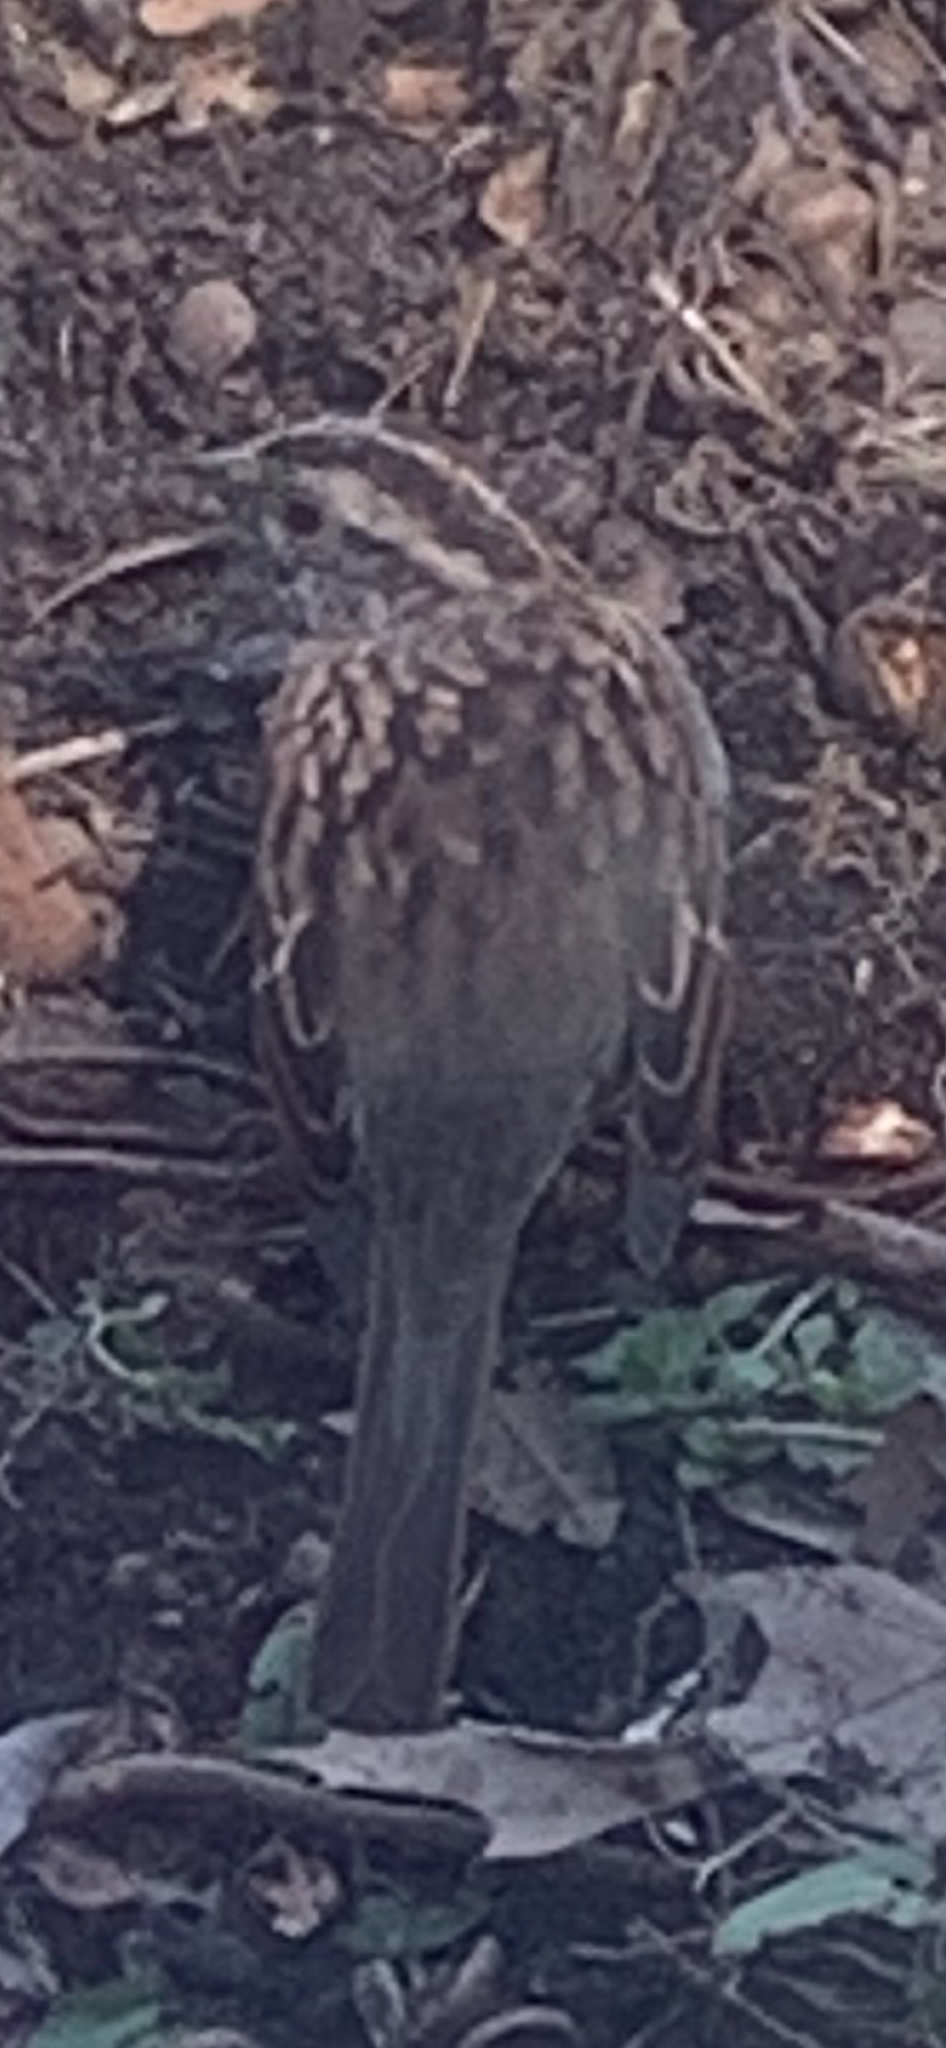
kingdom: Animalia
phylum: Chordata
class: Aves
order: Passeriformes
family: Passerellidae
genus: Zonotrichia
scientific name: Zonotrichia albicollis
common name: White-throated sparrow
